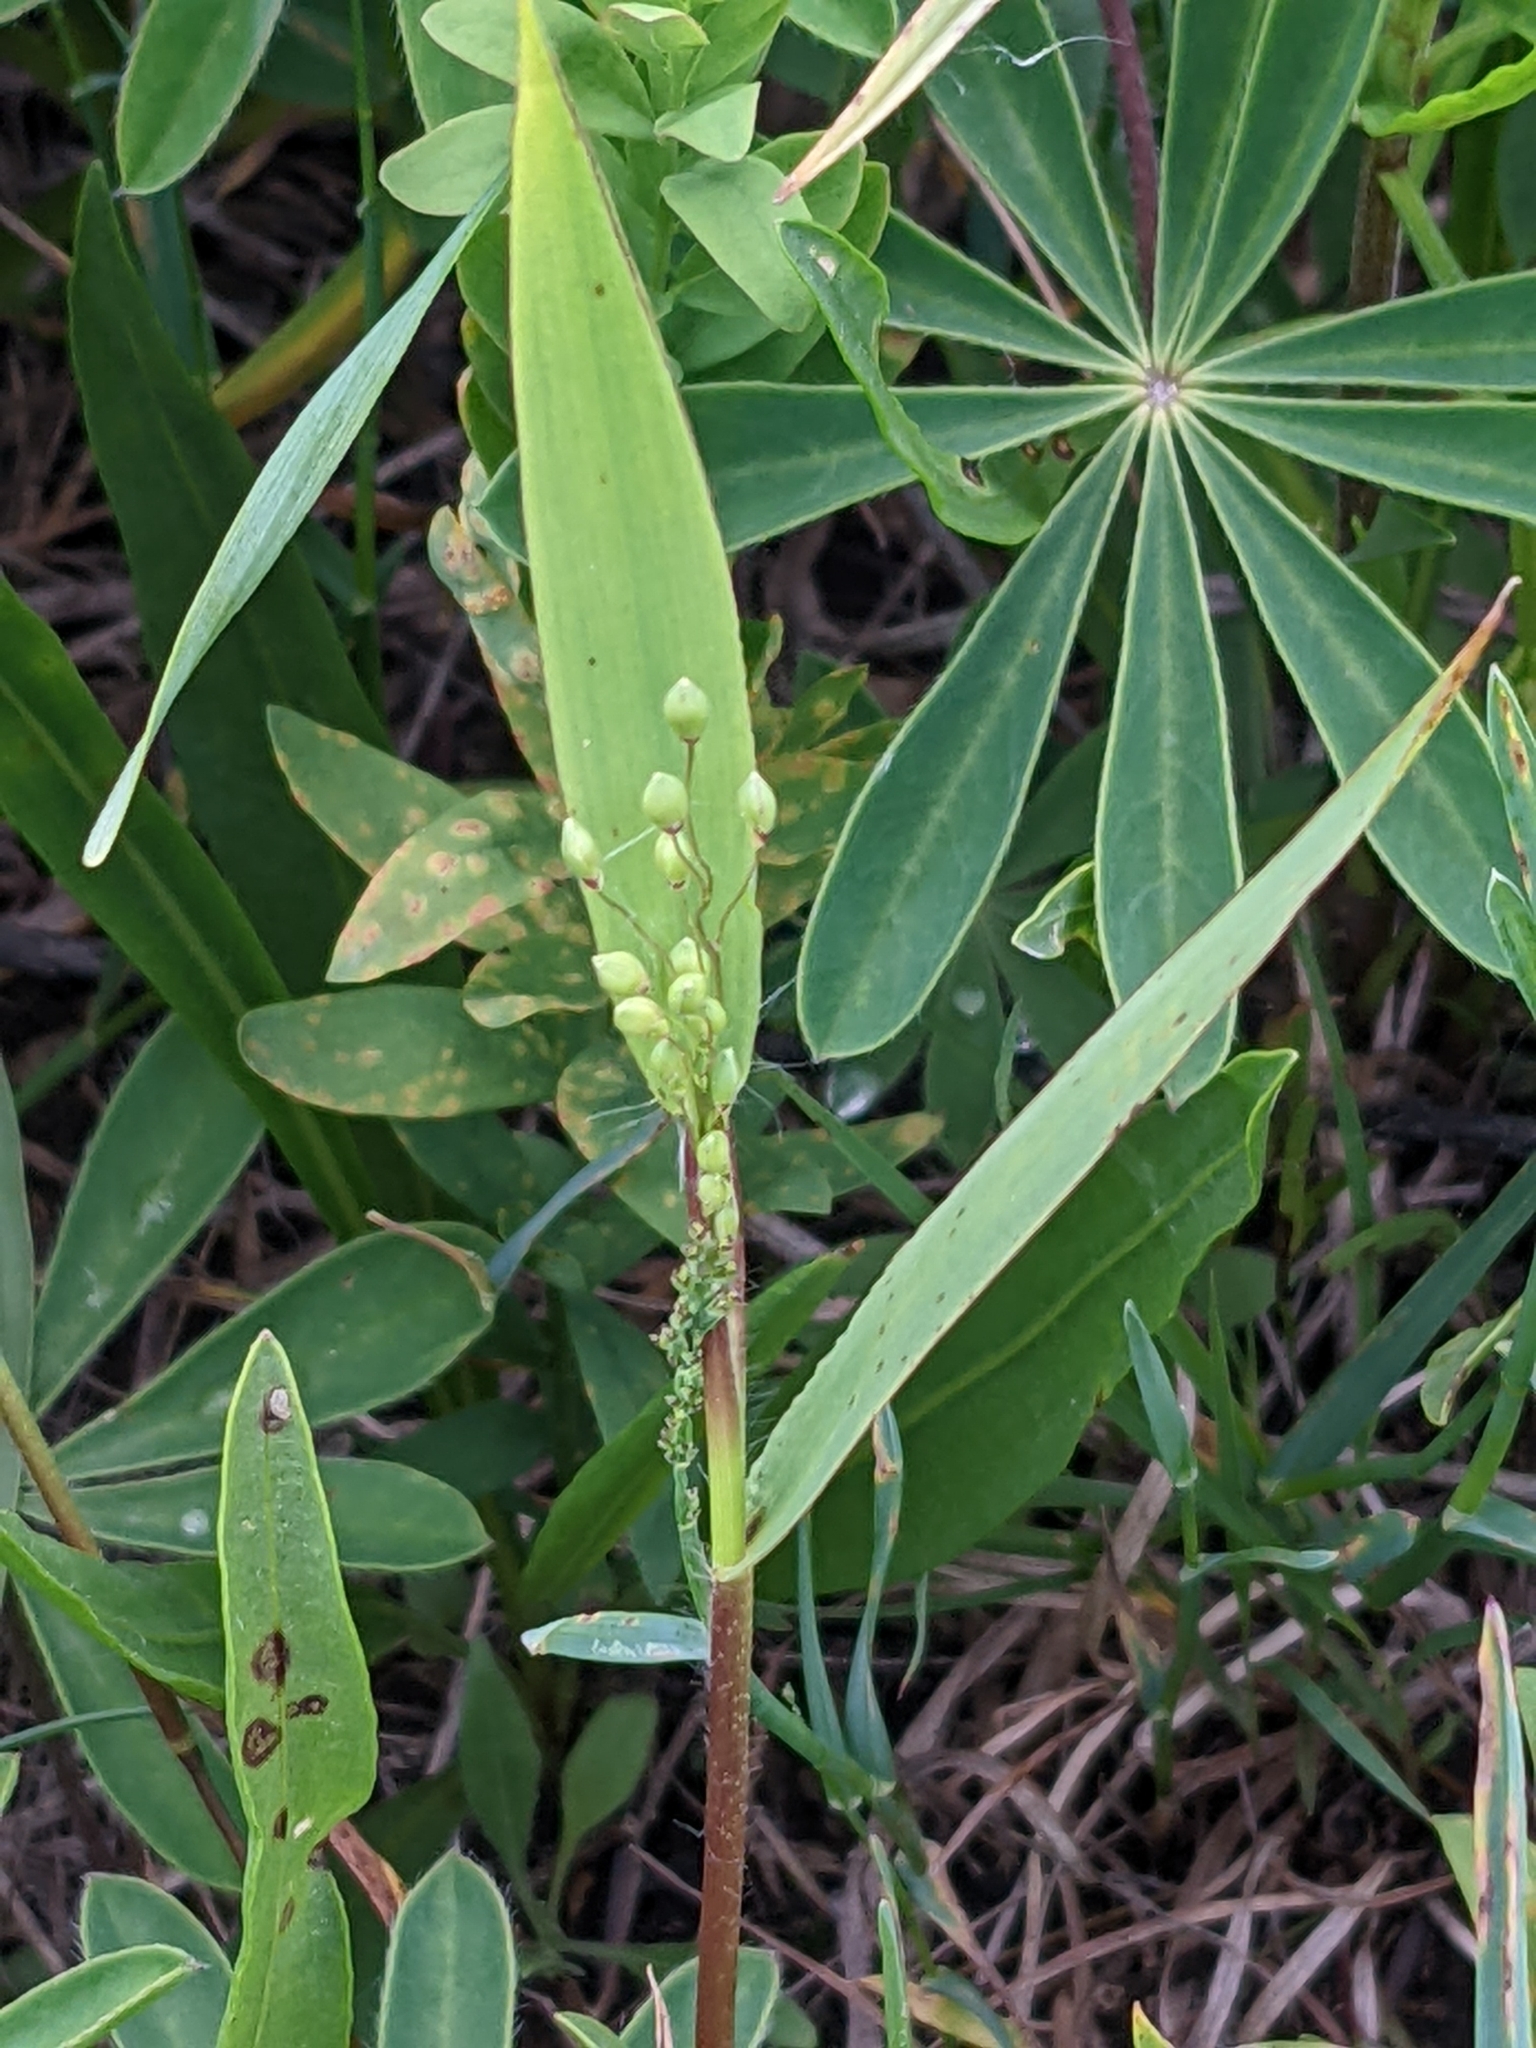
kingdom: Plantae
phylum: Tracheophyta
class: Liliopsida
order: Poales
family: Poaceae
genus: Dichanthelium
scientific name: Dichanthelium scribnerianum
